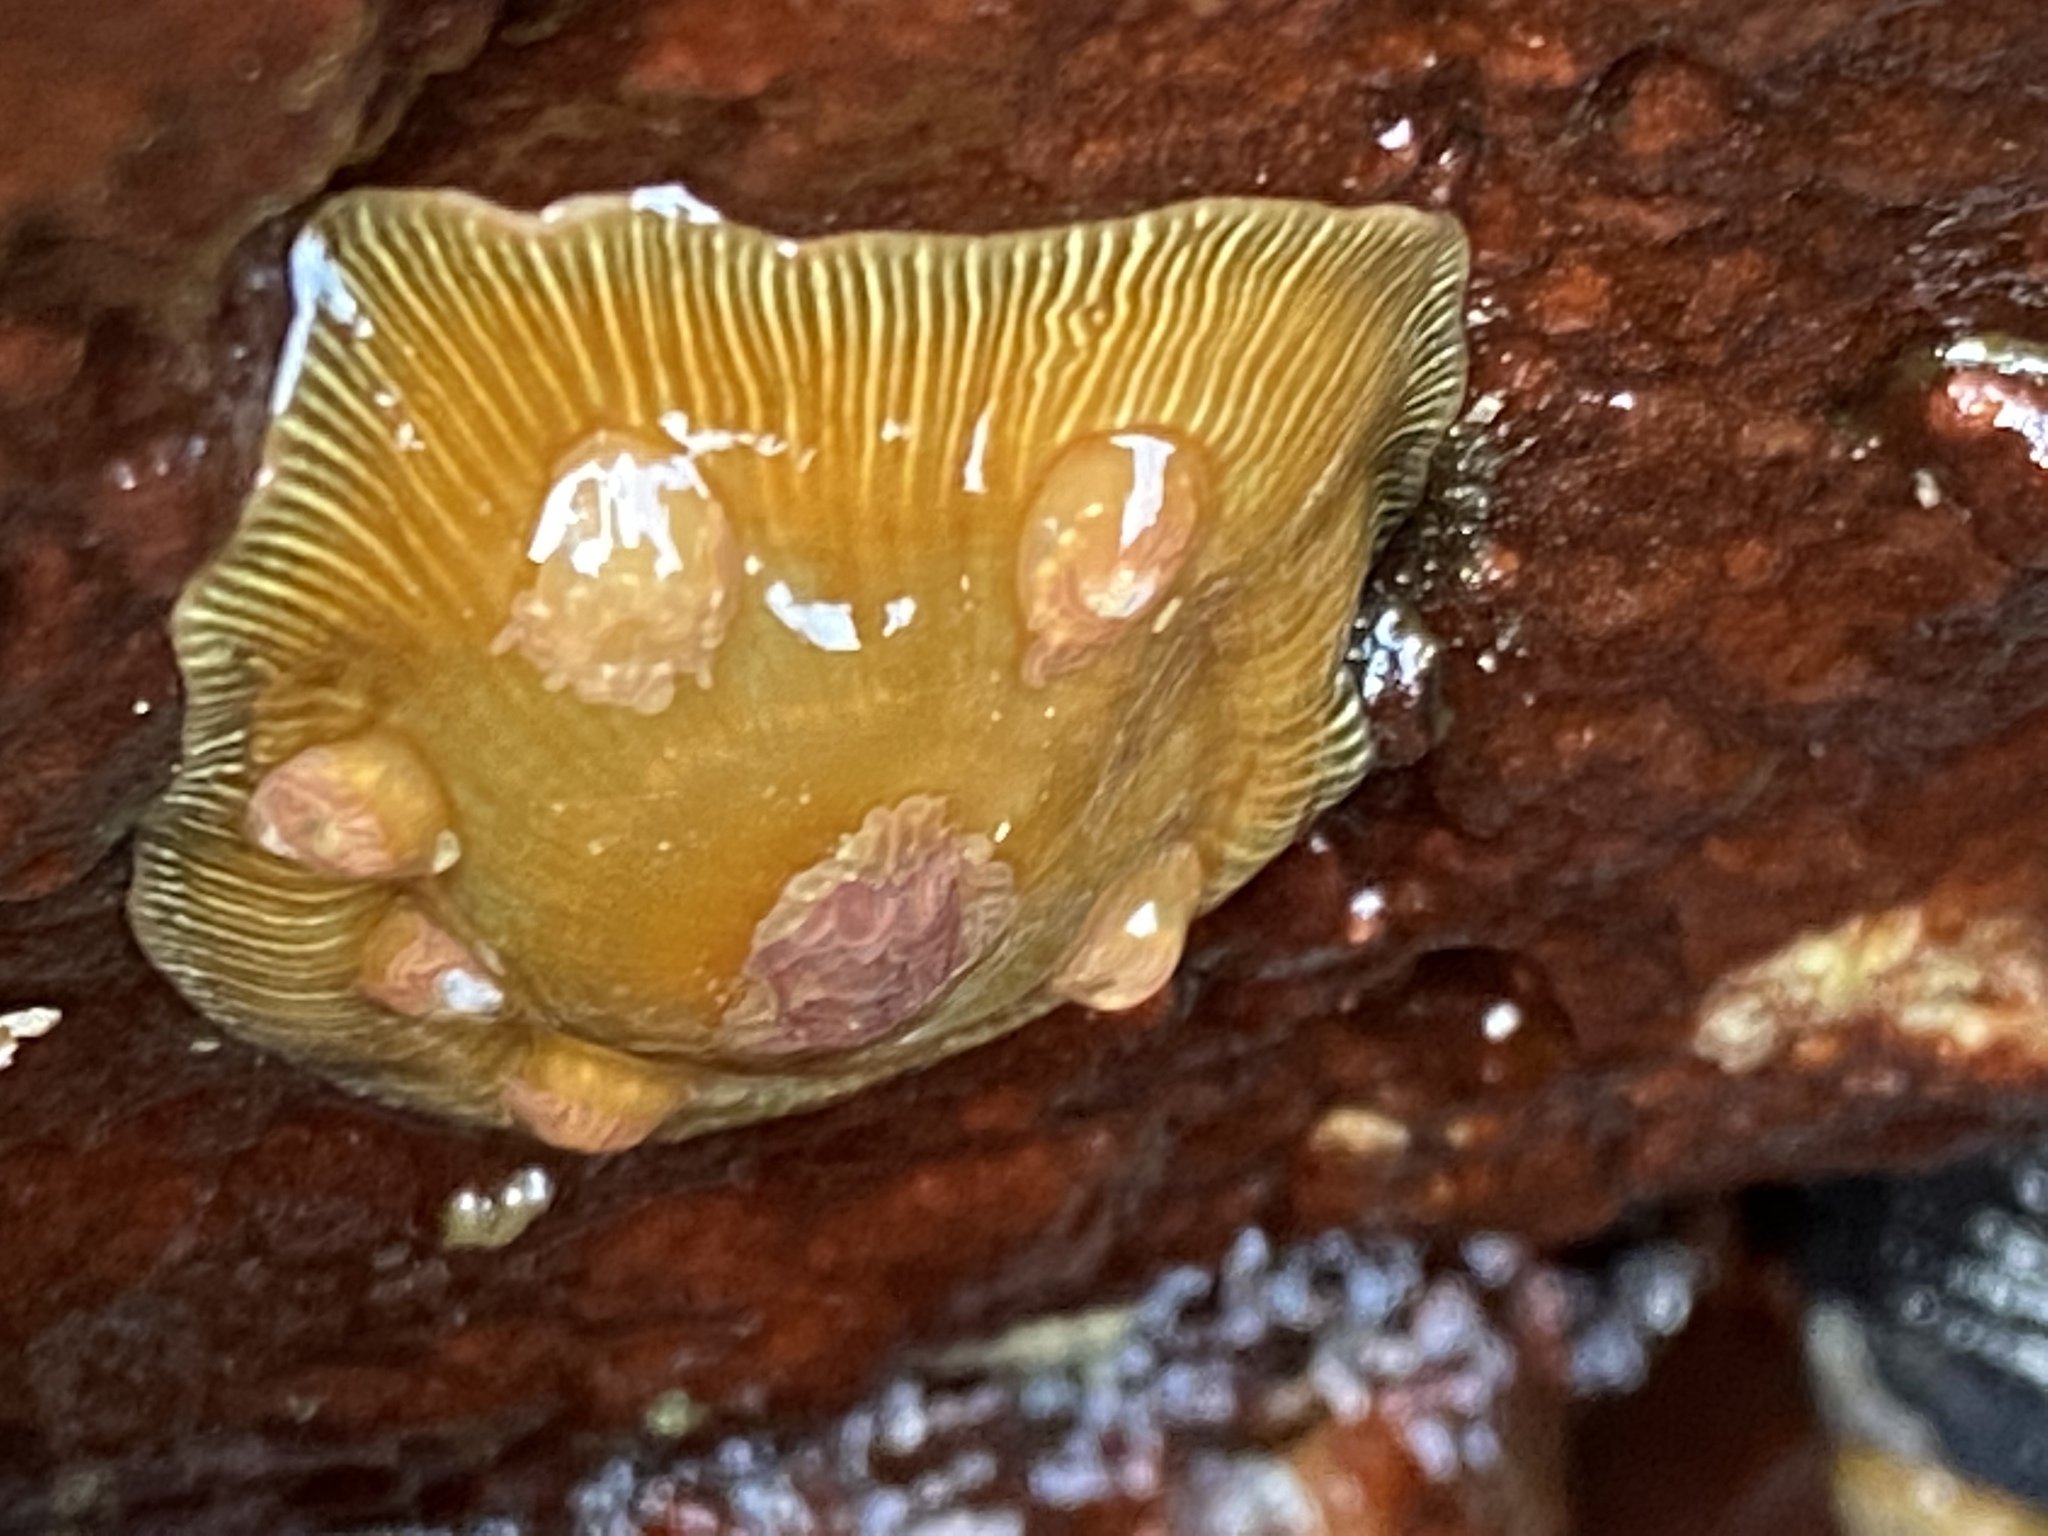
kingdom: Animalia
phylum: Cnidaria
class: Anthozoa
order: Actiniaria
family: Actiniidae
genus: Epiactis
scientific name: Epiactis prolifera
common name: Brooding anemone
